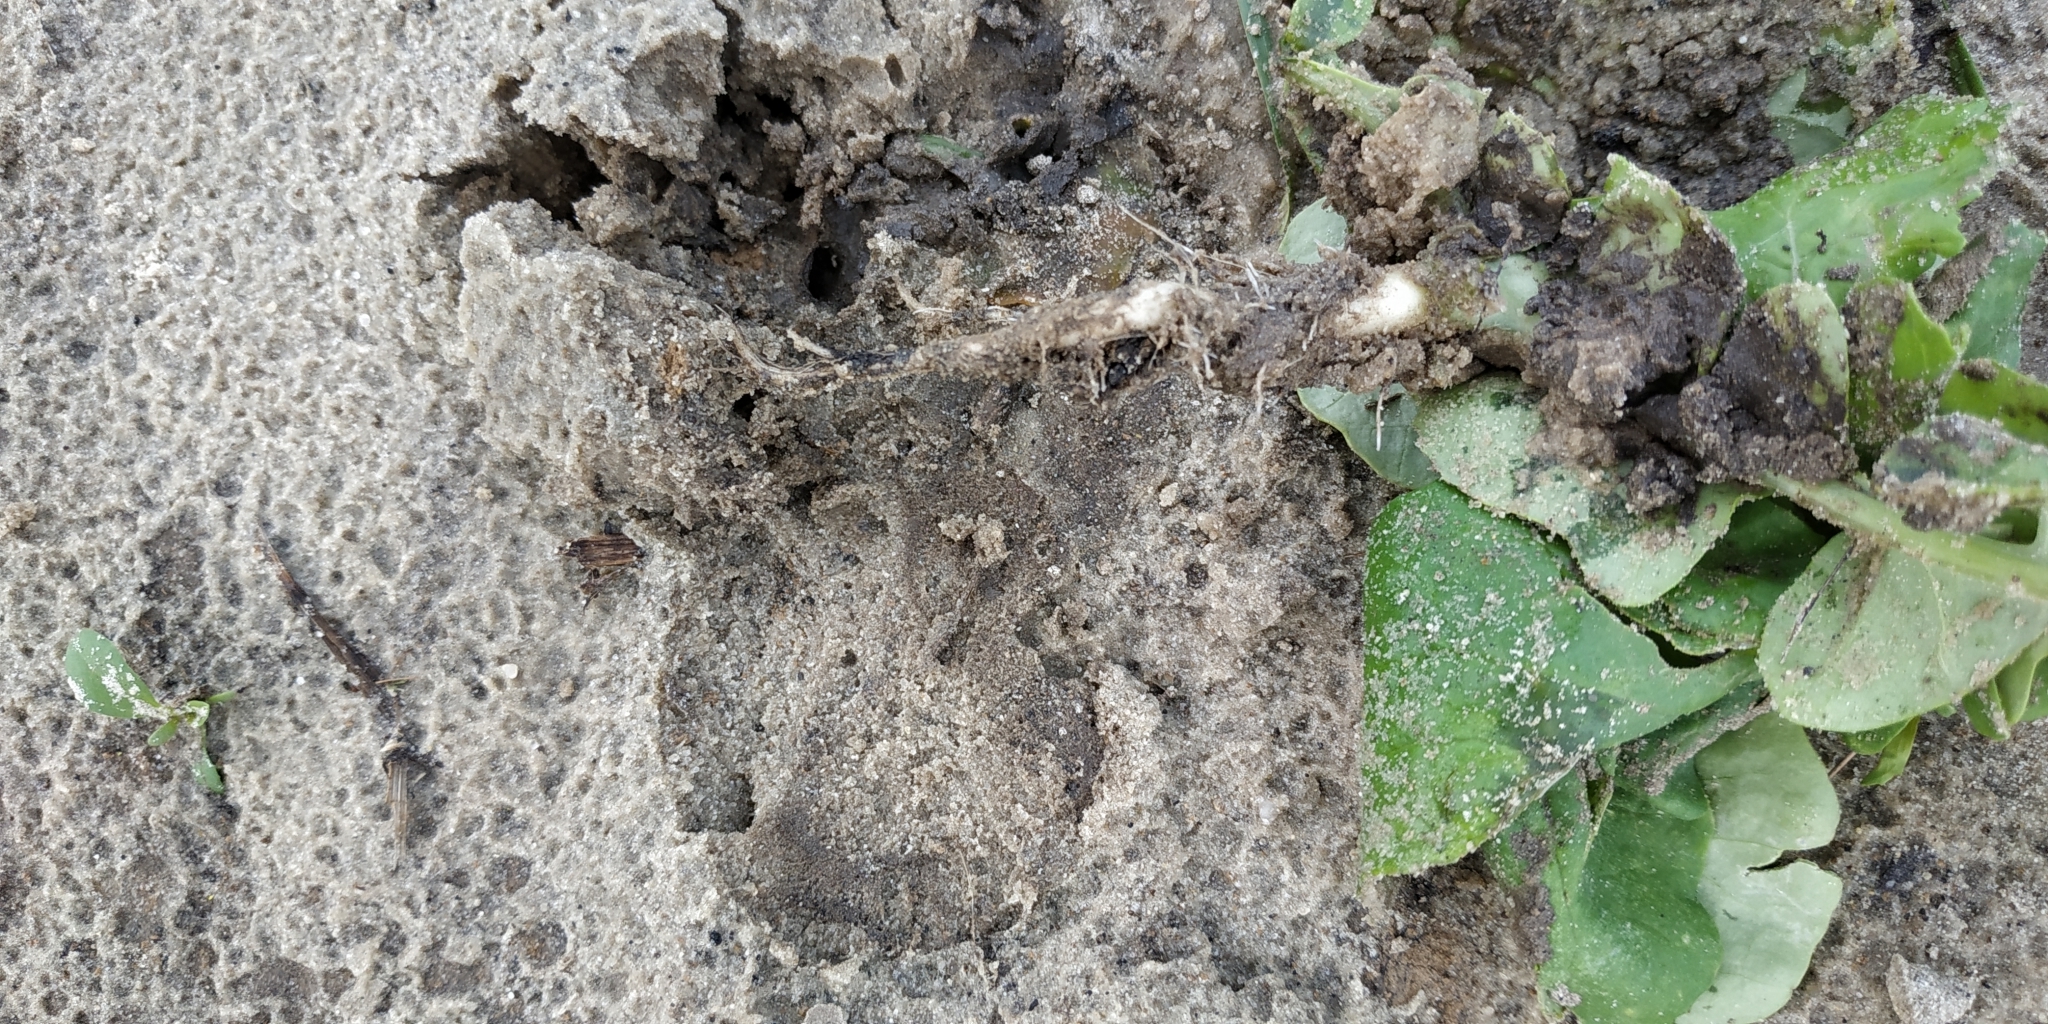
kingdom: Plantae
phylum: Tracheophyta
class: Magnoliopsida
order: Brassicales
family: Brassicaceae
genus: Brassica
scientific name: Brassica rapa
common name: Field mustard
